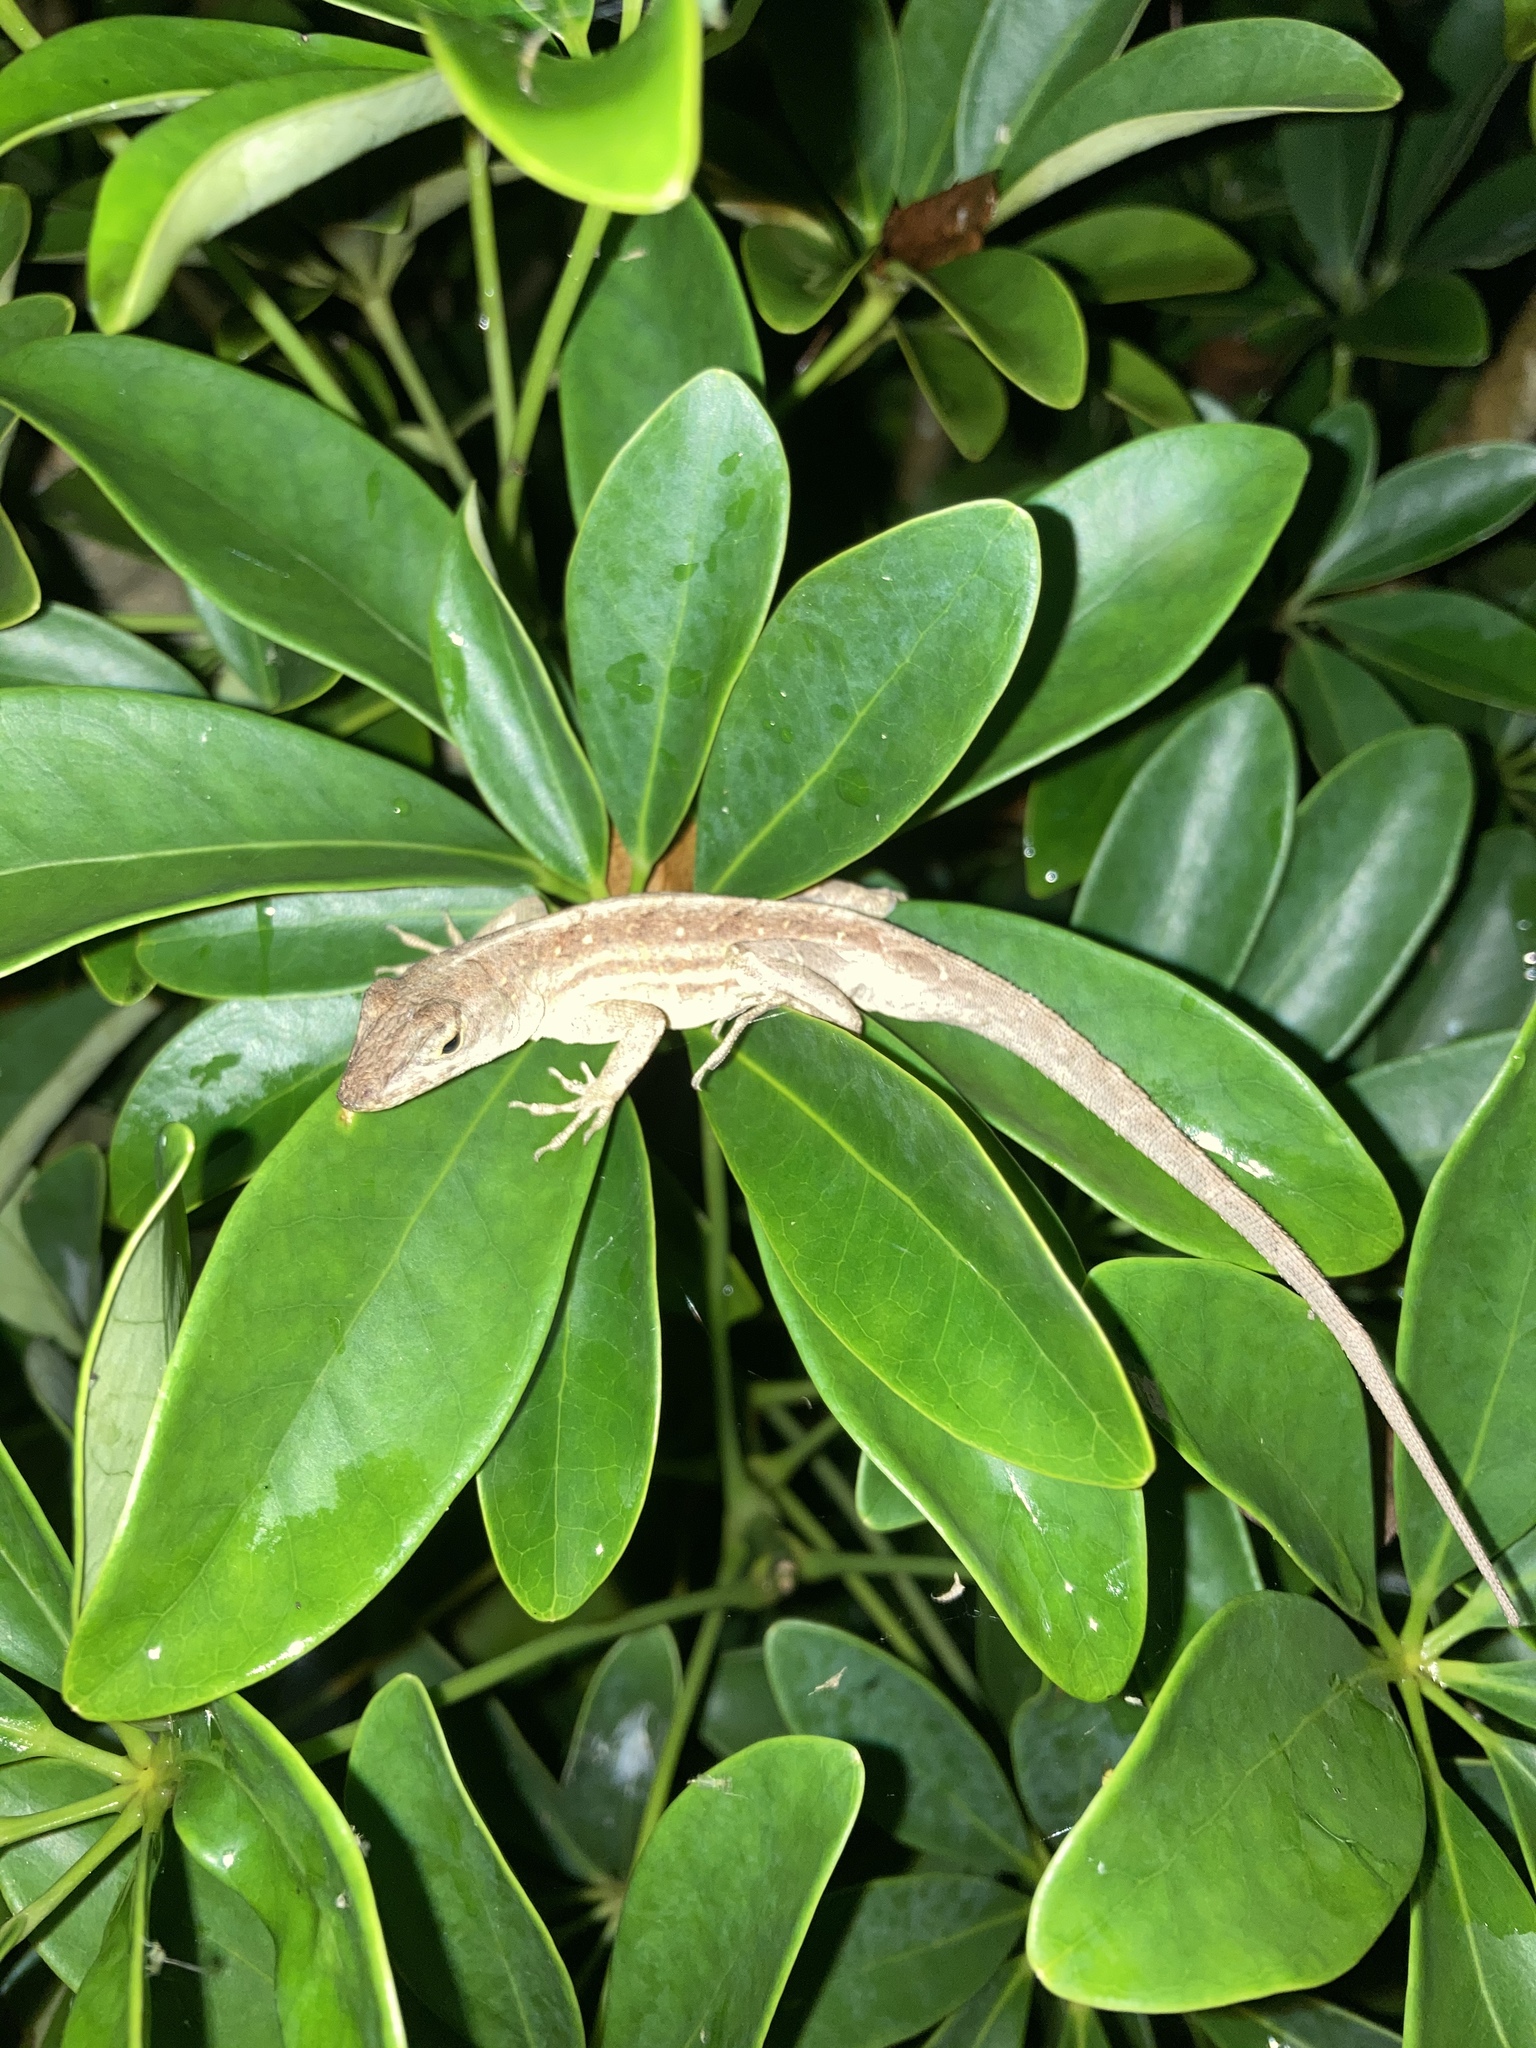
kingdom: Animalia
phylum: Chordata
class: Squamata
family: Dactyloidae
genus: Anolis
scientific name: Anolis sagrei
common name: Brown anole
